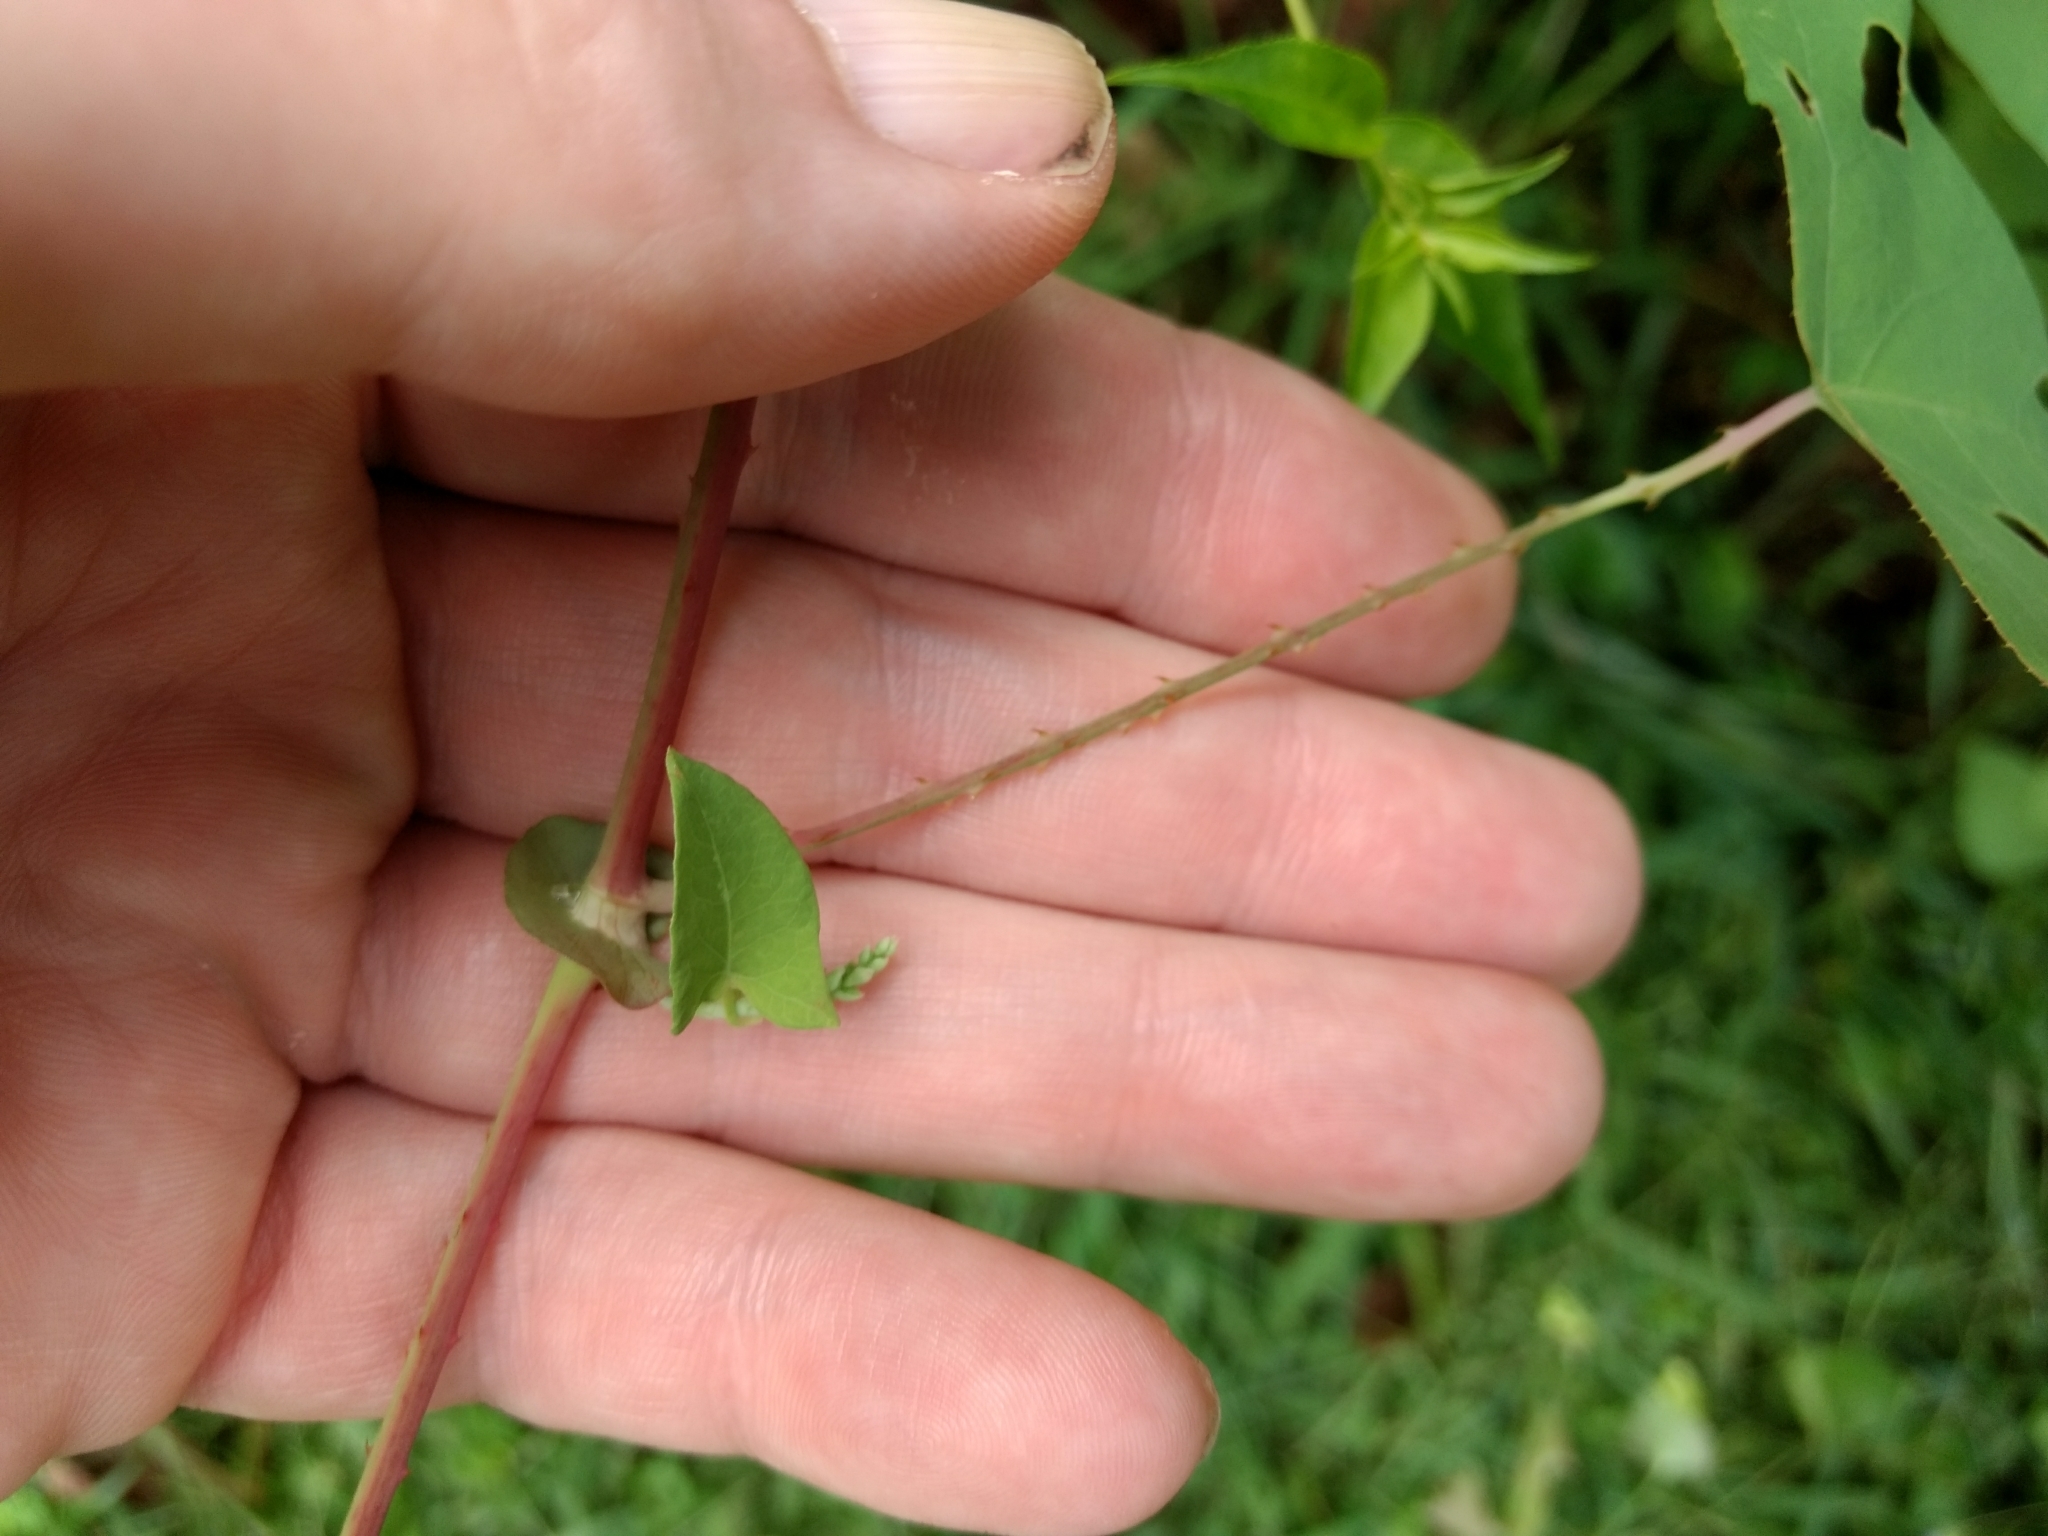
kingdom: Plantae
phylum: Tracheophyta
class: Magnoliopsida
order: Caryophyllales
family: Polygonaceae
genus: Persicaria
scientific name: Persicaria perfoliata
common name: Asiatic tearthumb
